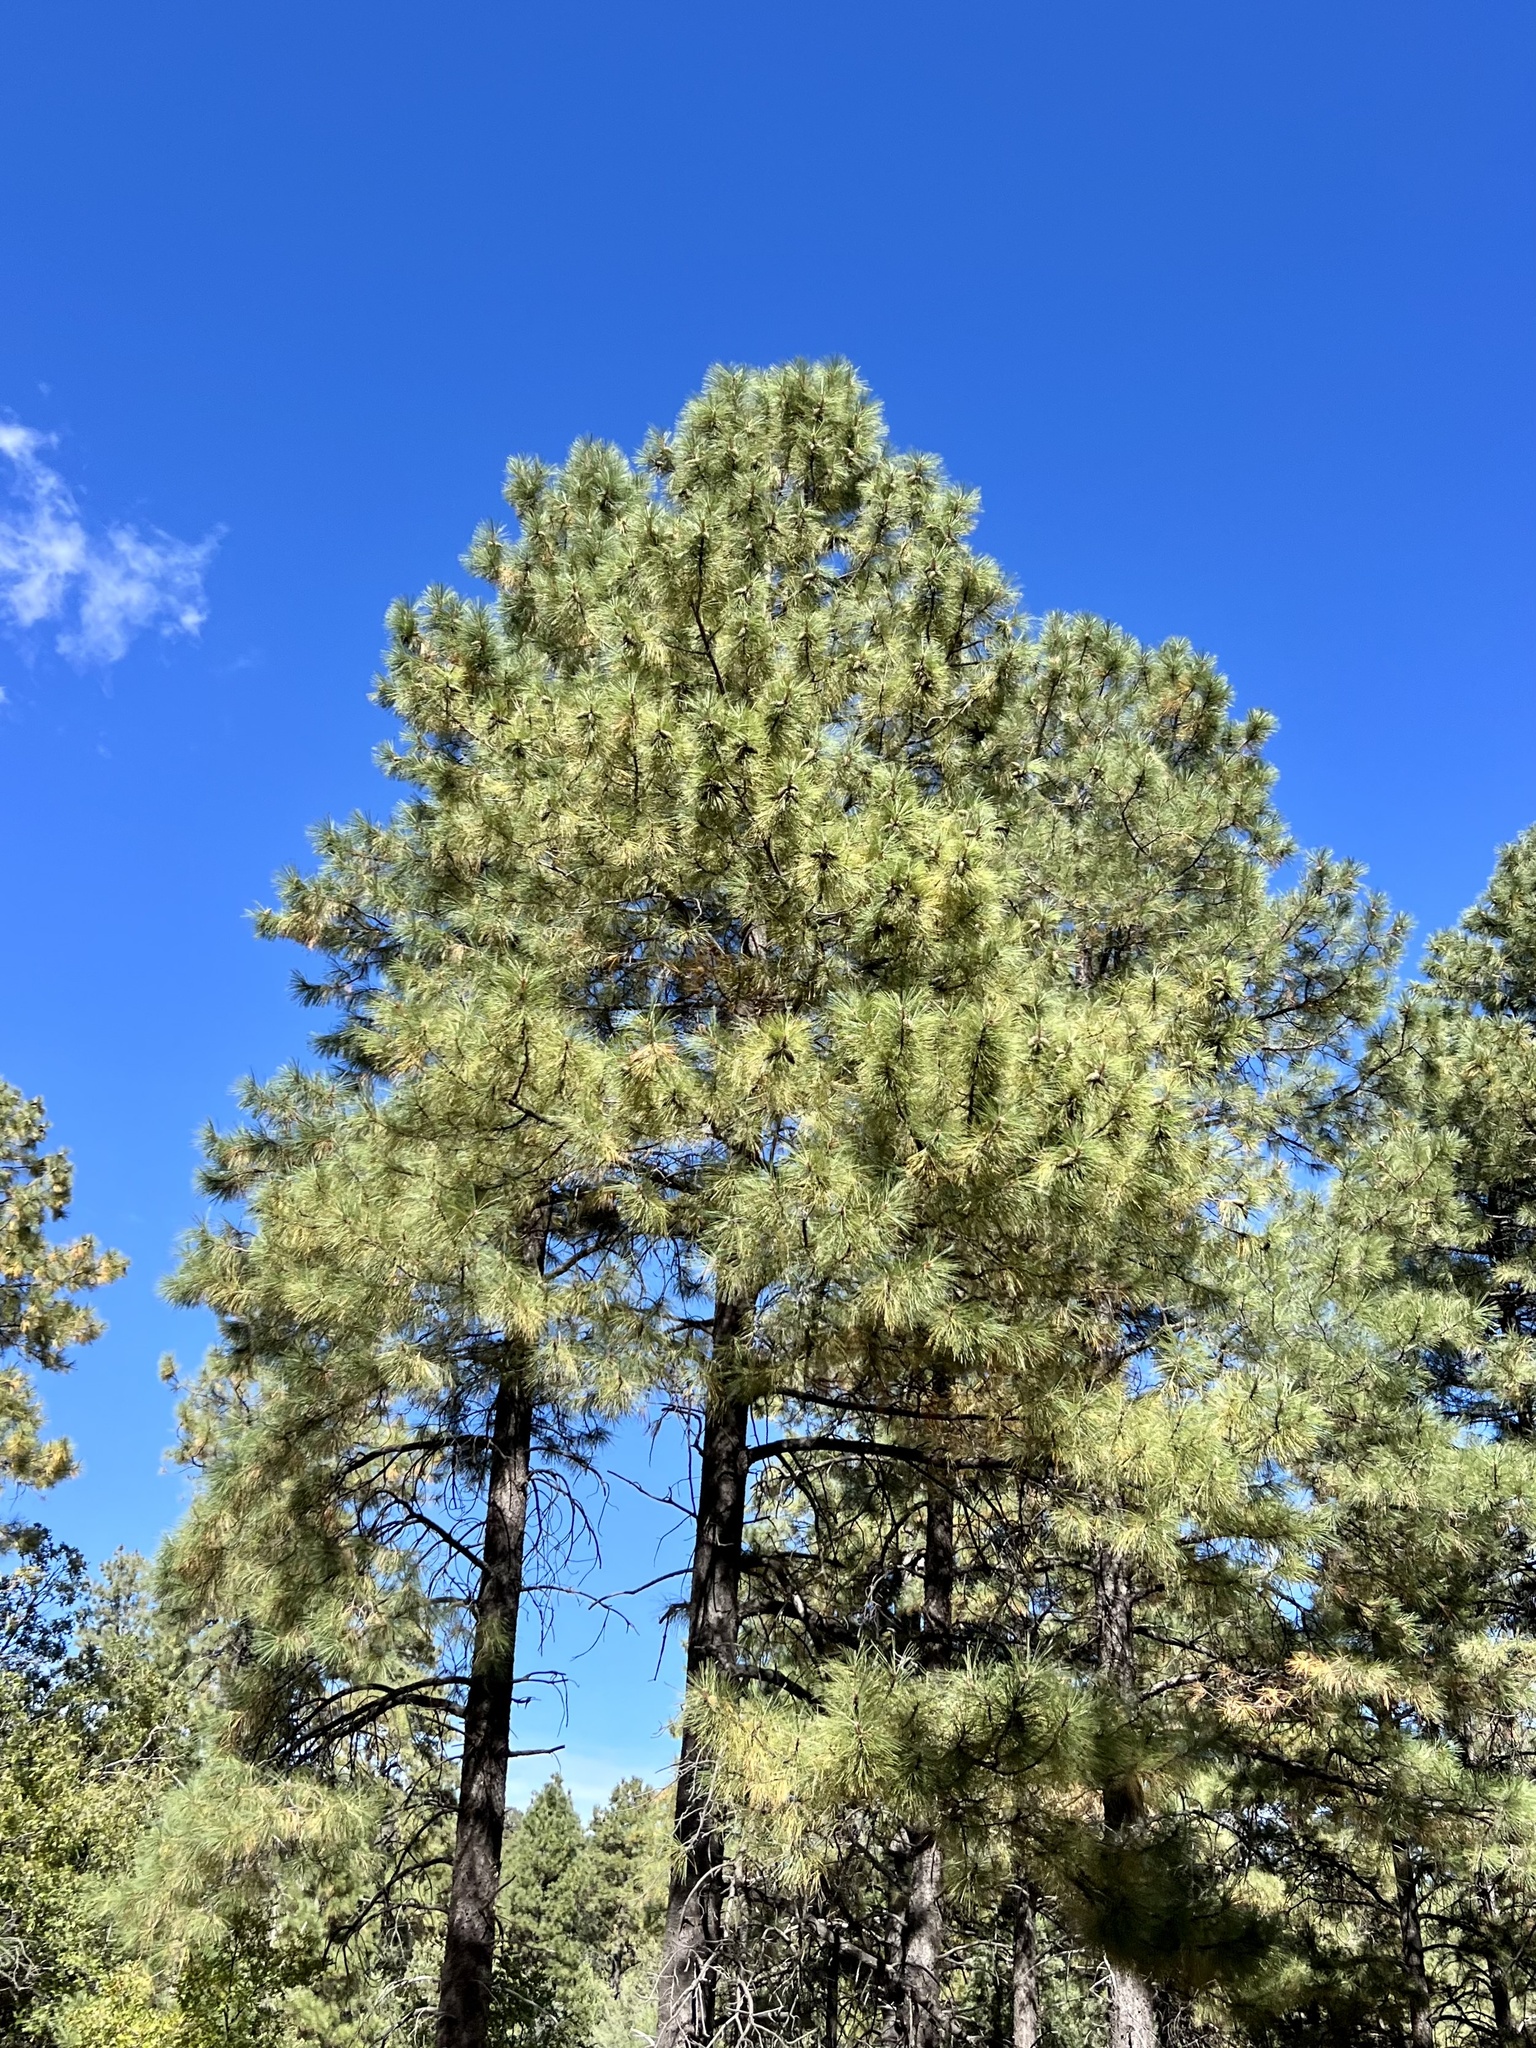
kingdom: Plantae
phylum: Tracheophyta
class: Pinopsida
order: Pinales
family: Pinaceae
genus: Pinus
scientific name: Pinus ponderosa
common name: Western yellow-pine
